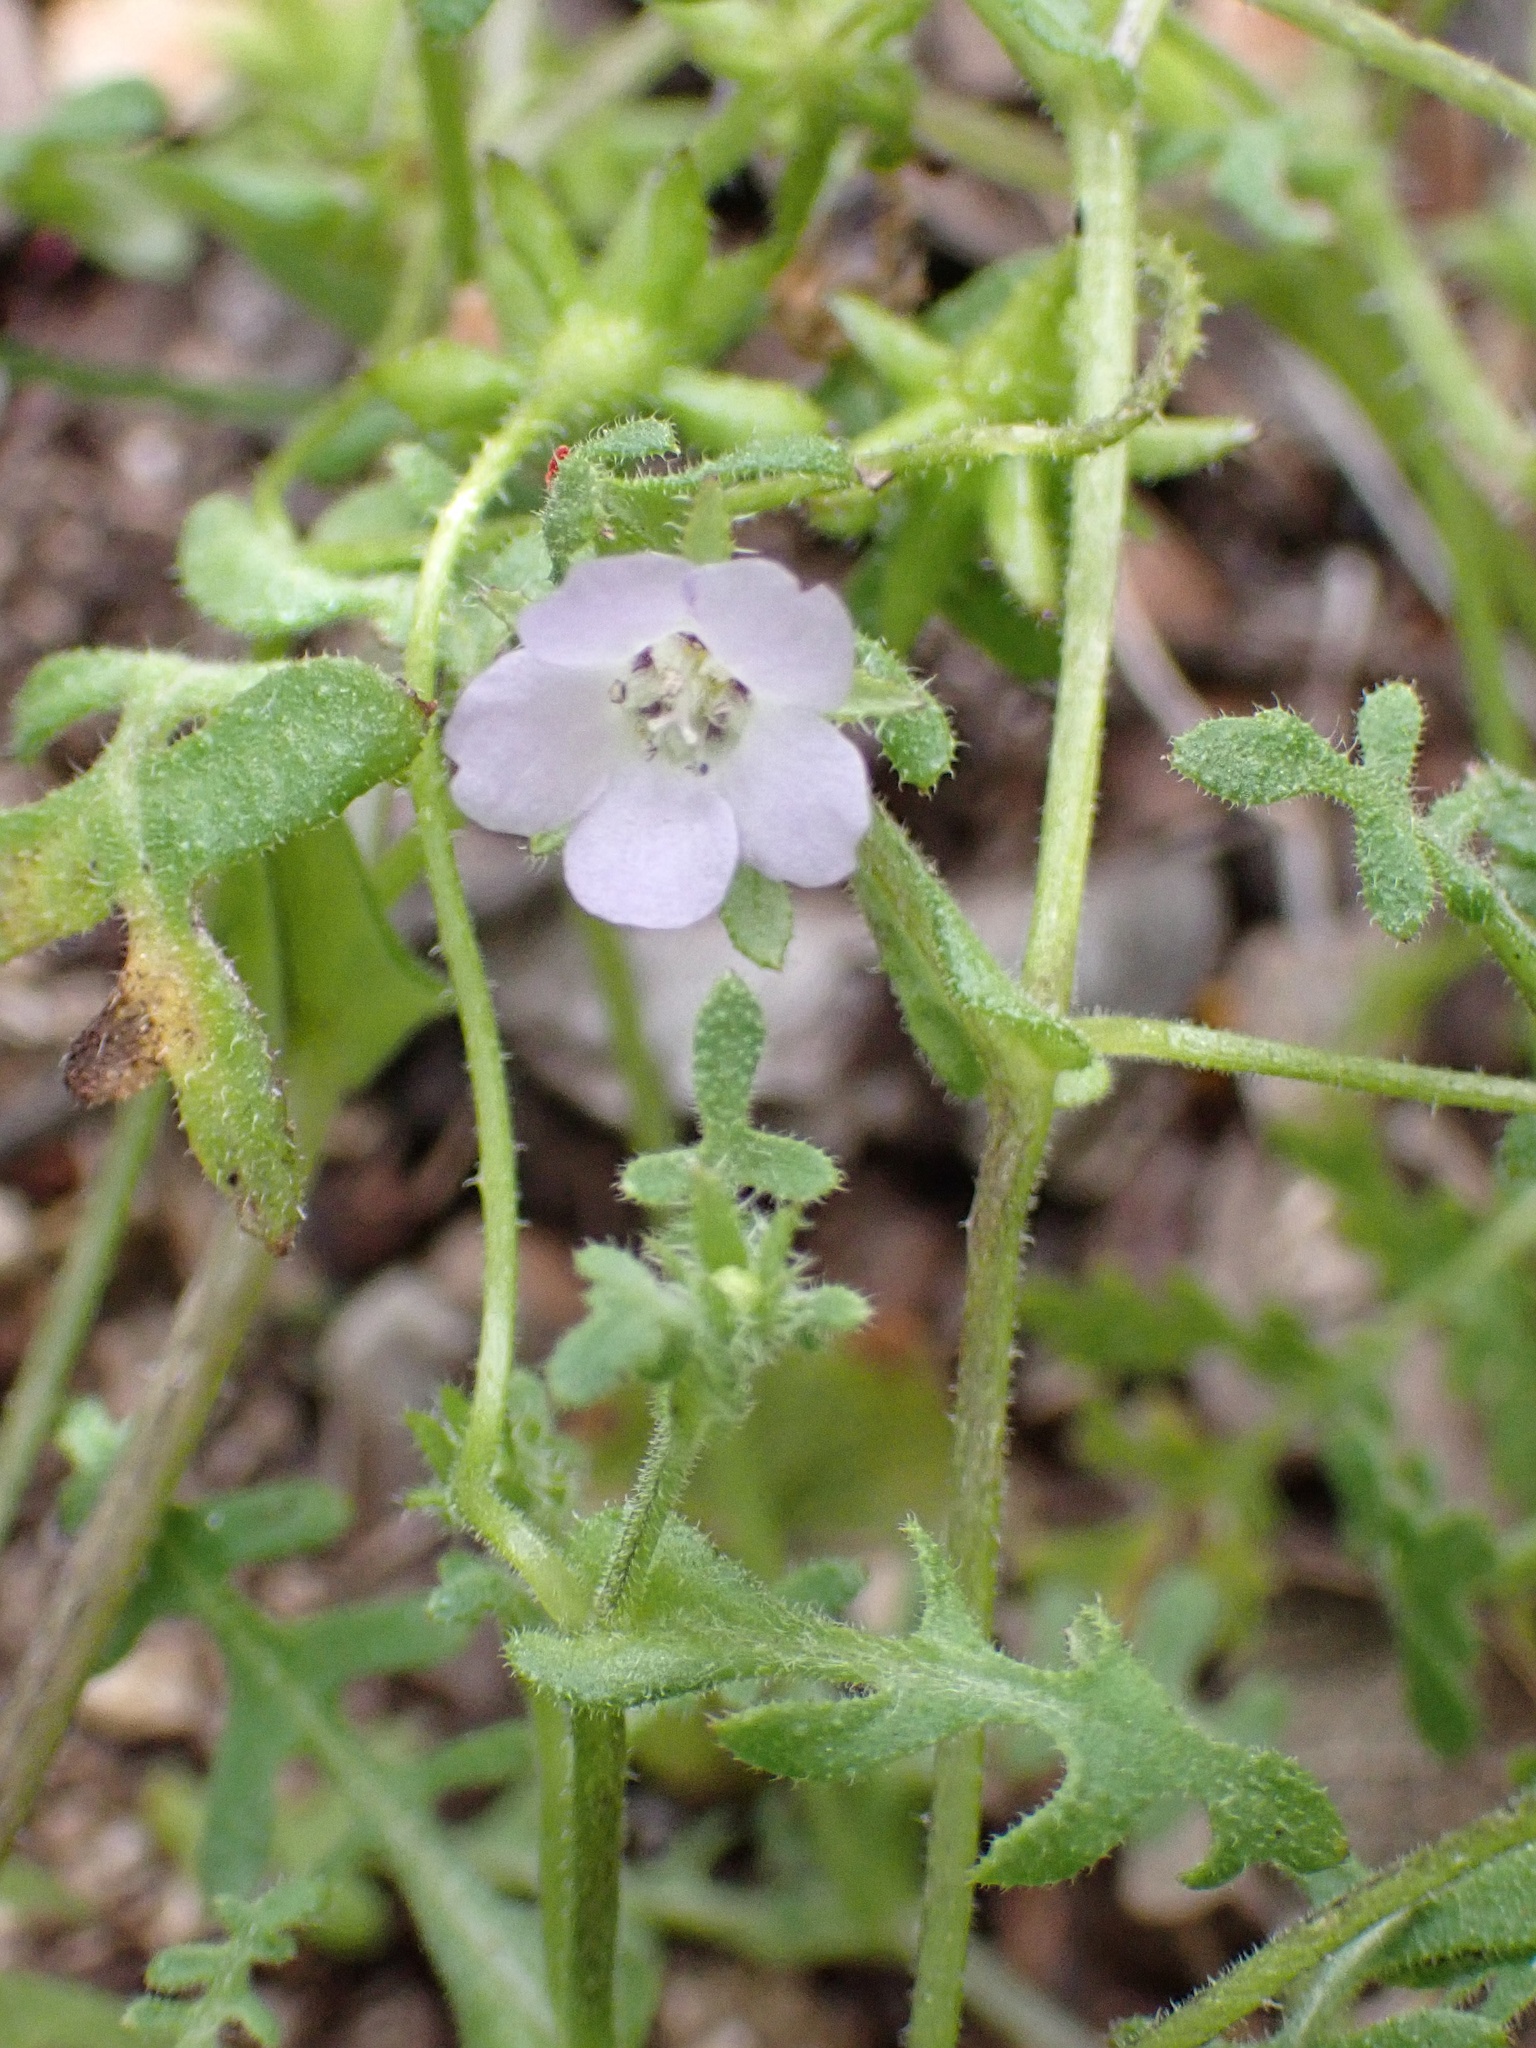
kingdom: Plantae
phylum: Tracheophyta
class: Magnoliopsida
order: Boraginales
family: Hydrophyllaceae
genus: Pholistoma
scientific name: Pholistoma auritum
